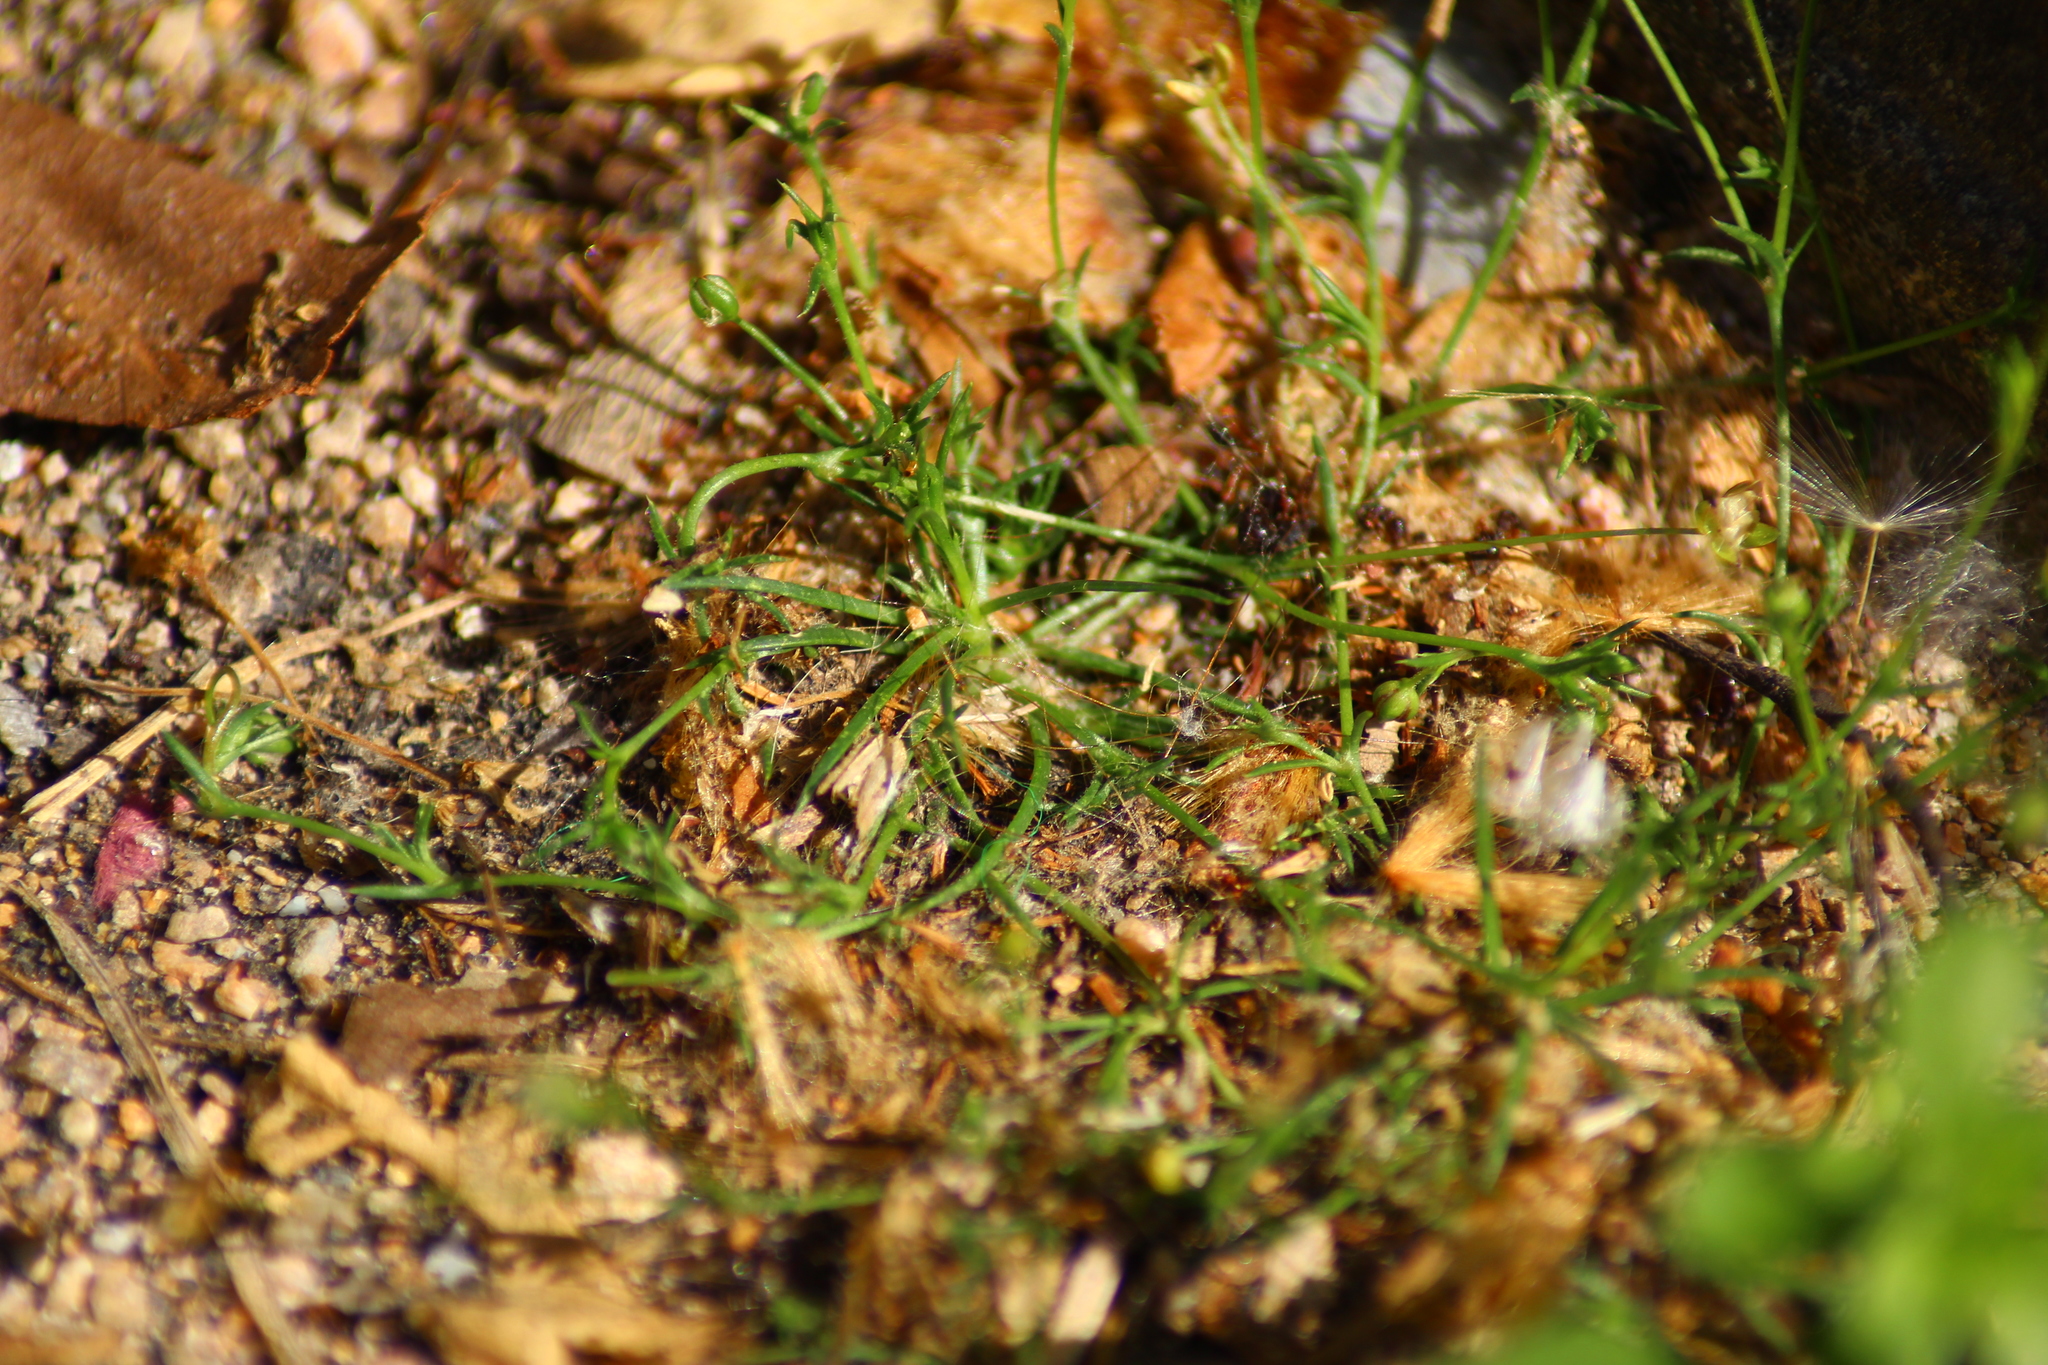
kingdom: Plantae
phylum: Tracheophyta
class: Magnoliopsida
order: Caryophyllales
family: Caryophyllaceae
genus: Sagina
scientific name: Sagina procumbens
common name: Procumbent pearlwort
